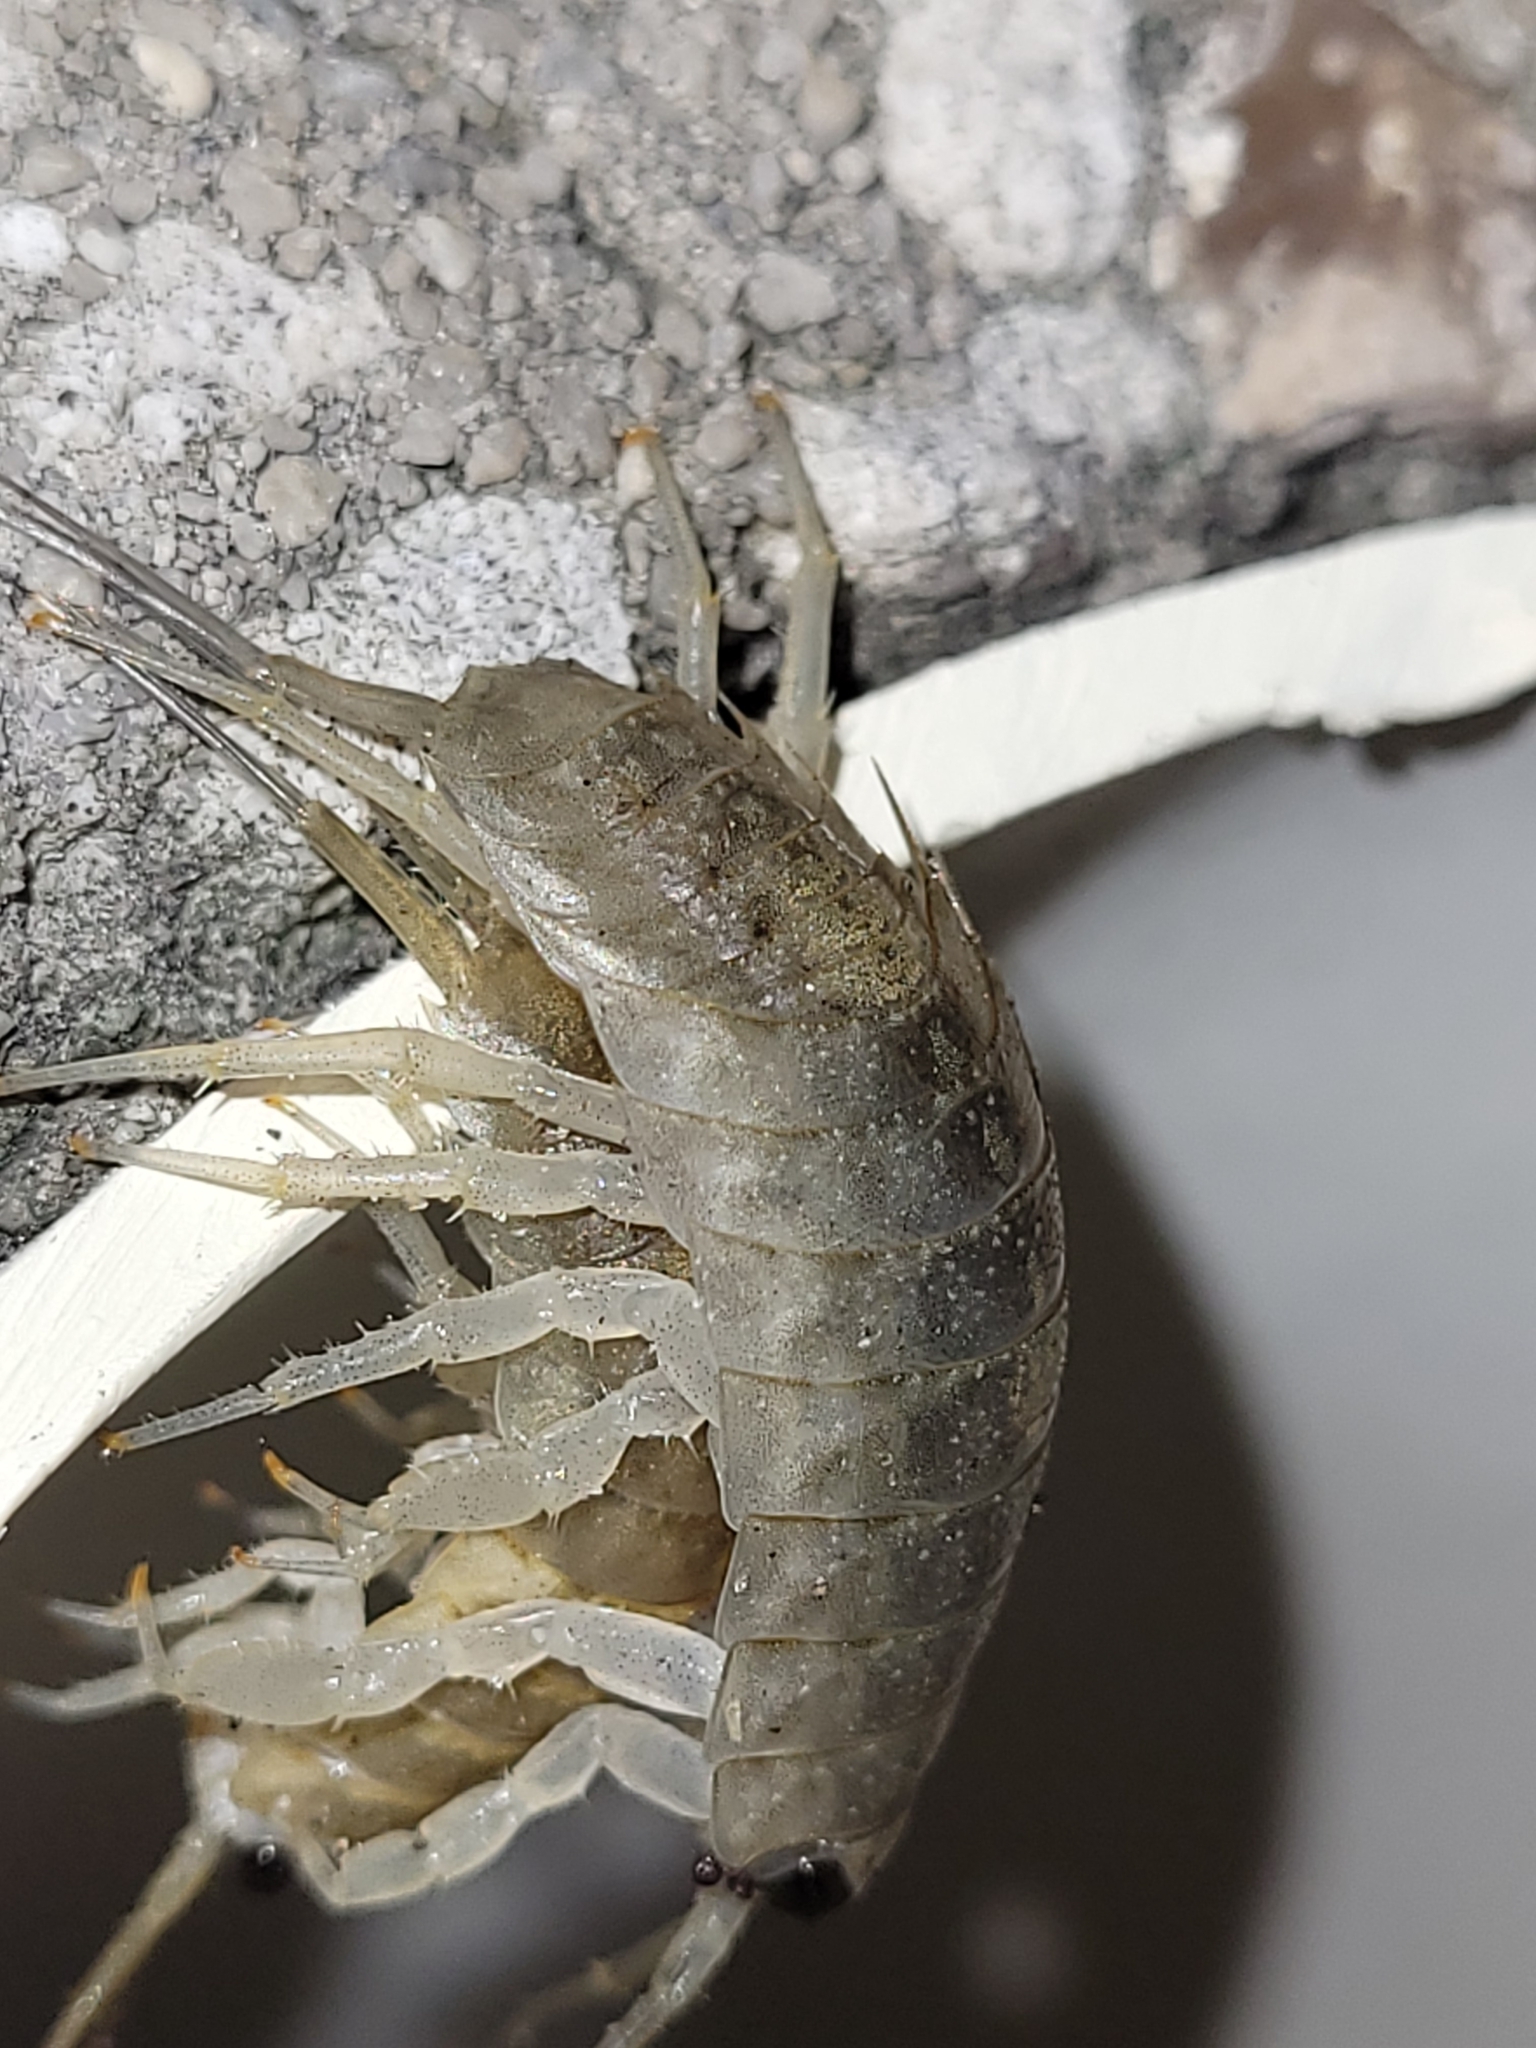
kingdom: Animalia
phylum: Arthropoda
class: Malacostraca
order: Isopoda
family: Ligiidae
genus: Ligia
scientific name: Ligia exotica
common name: Wharf roach
